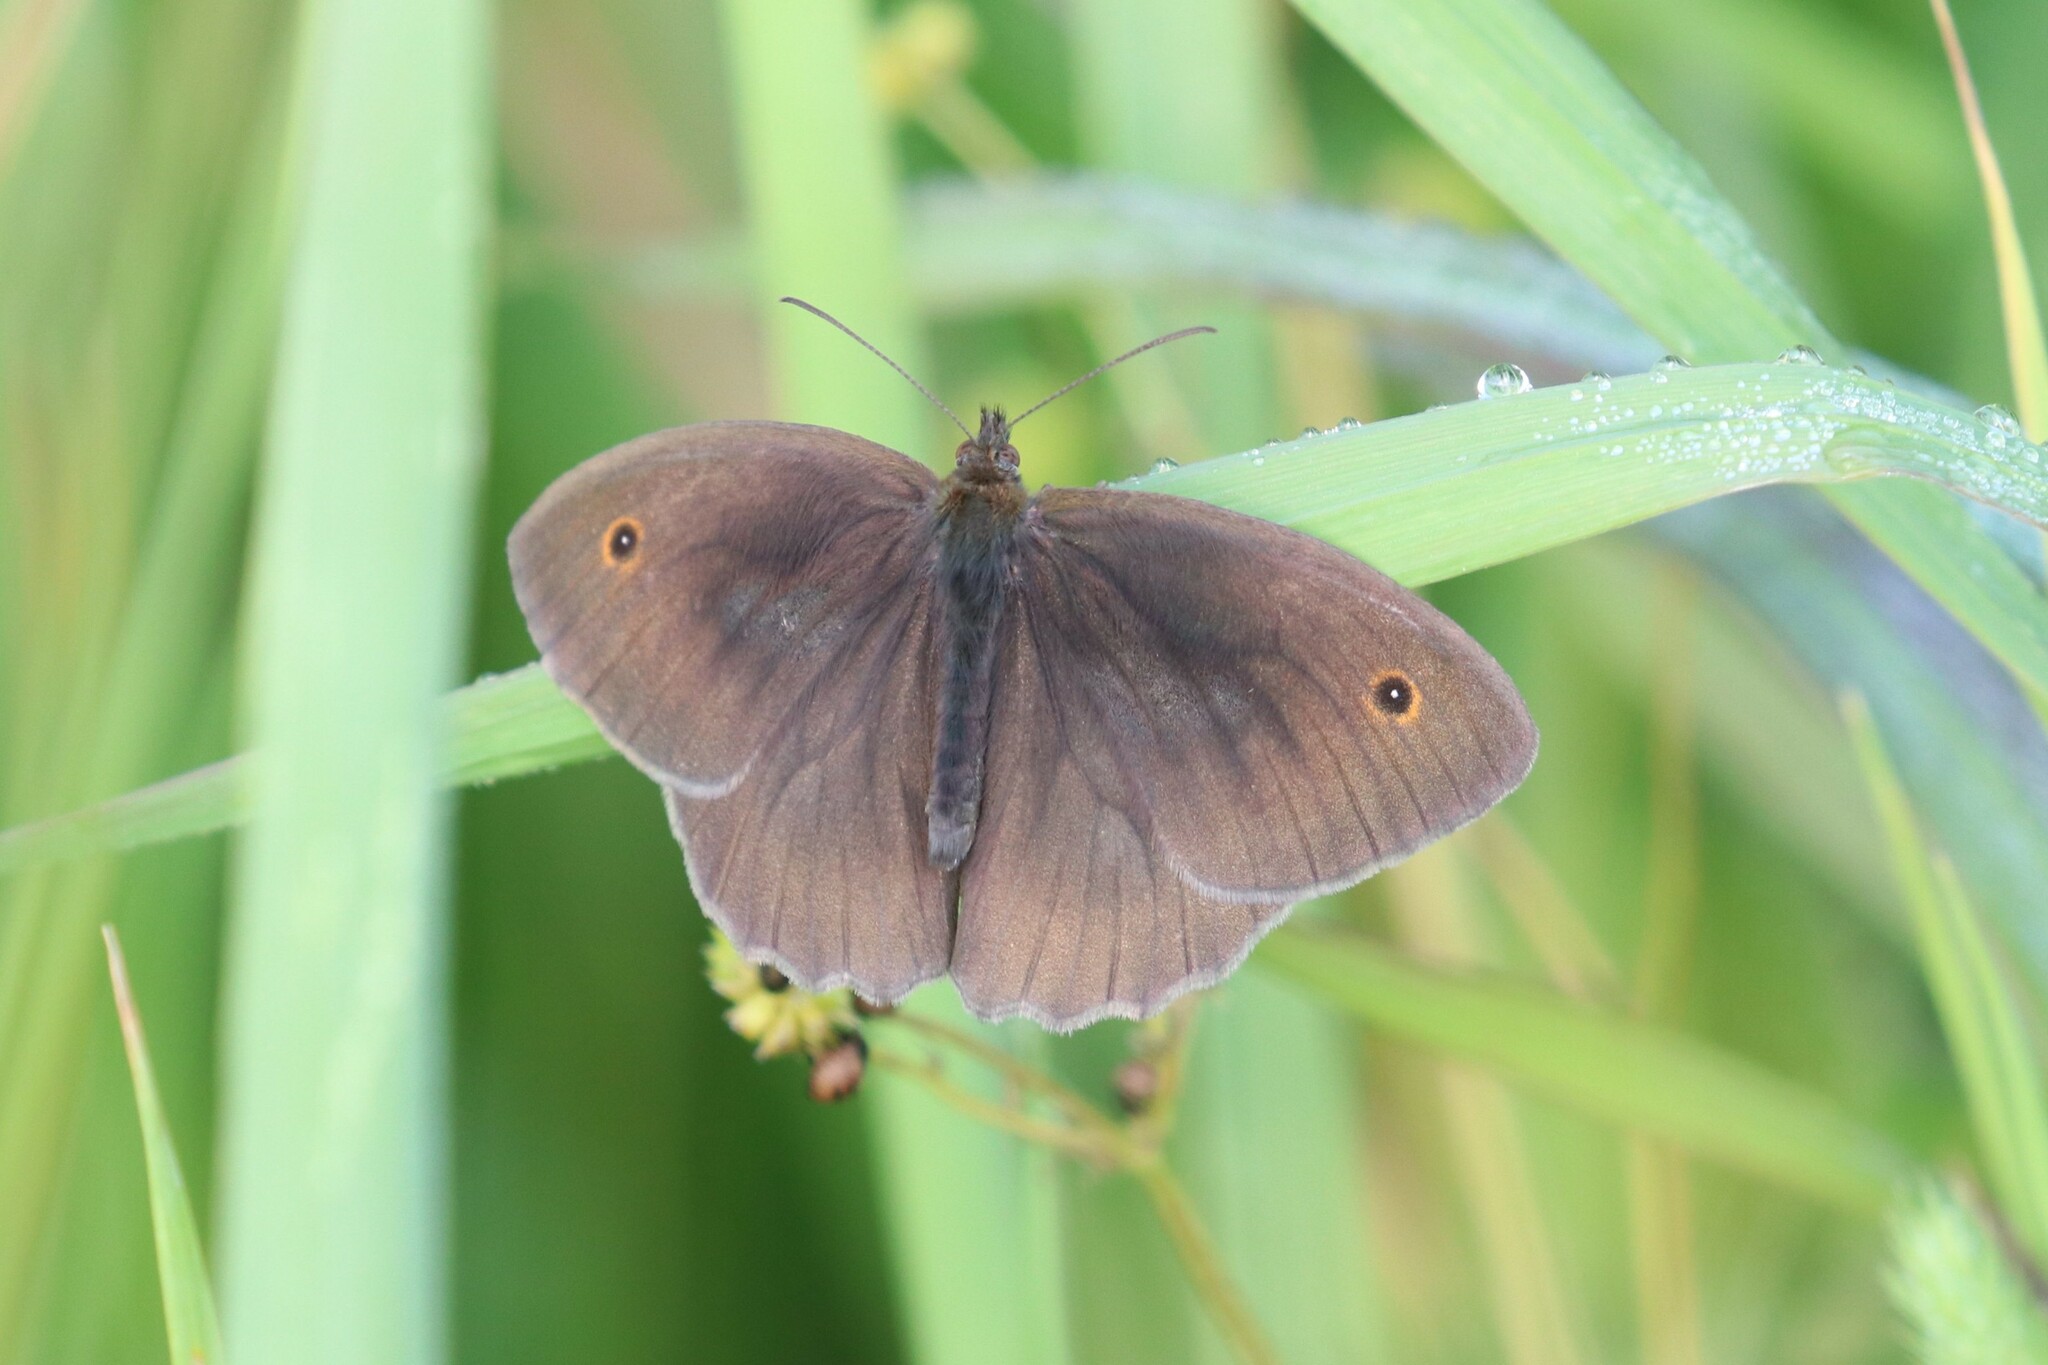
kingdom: Animalia
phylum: Arthropoda
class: Insecta
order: Lepidoptera
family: Nymphalidae
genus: Maniola
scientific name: Maniola jurtina
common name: Meadow brown
